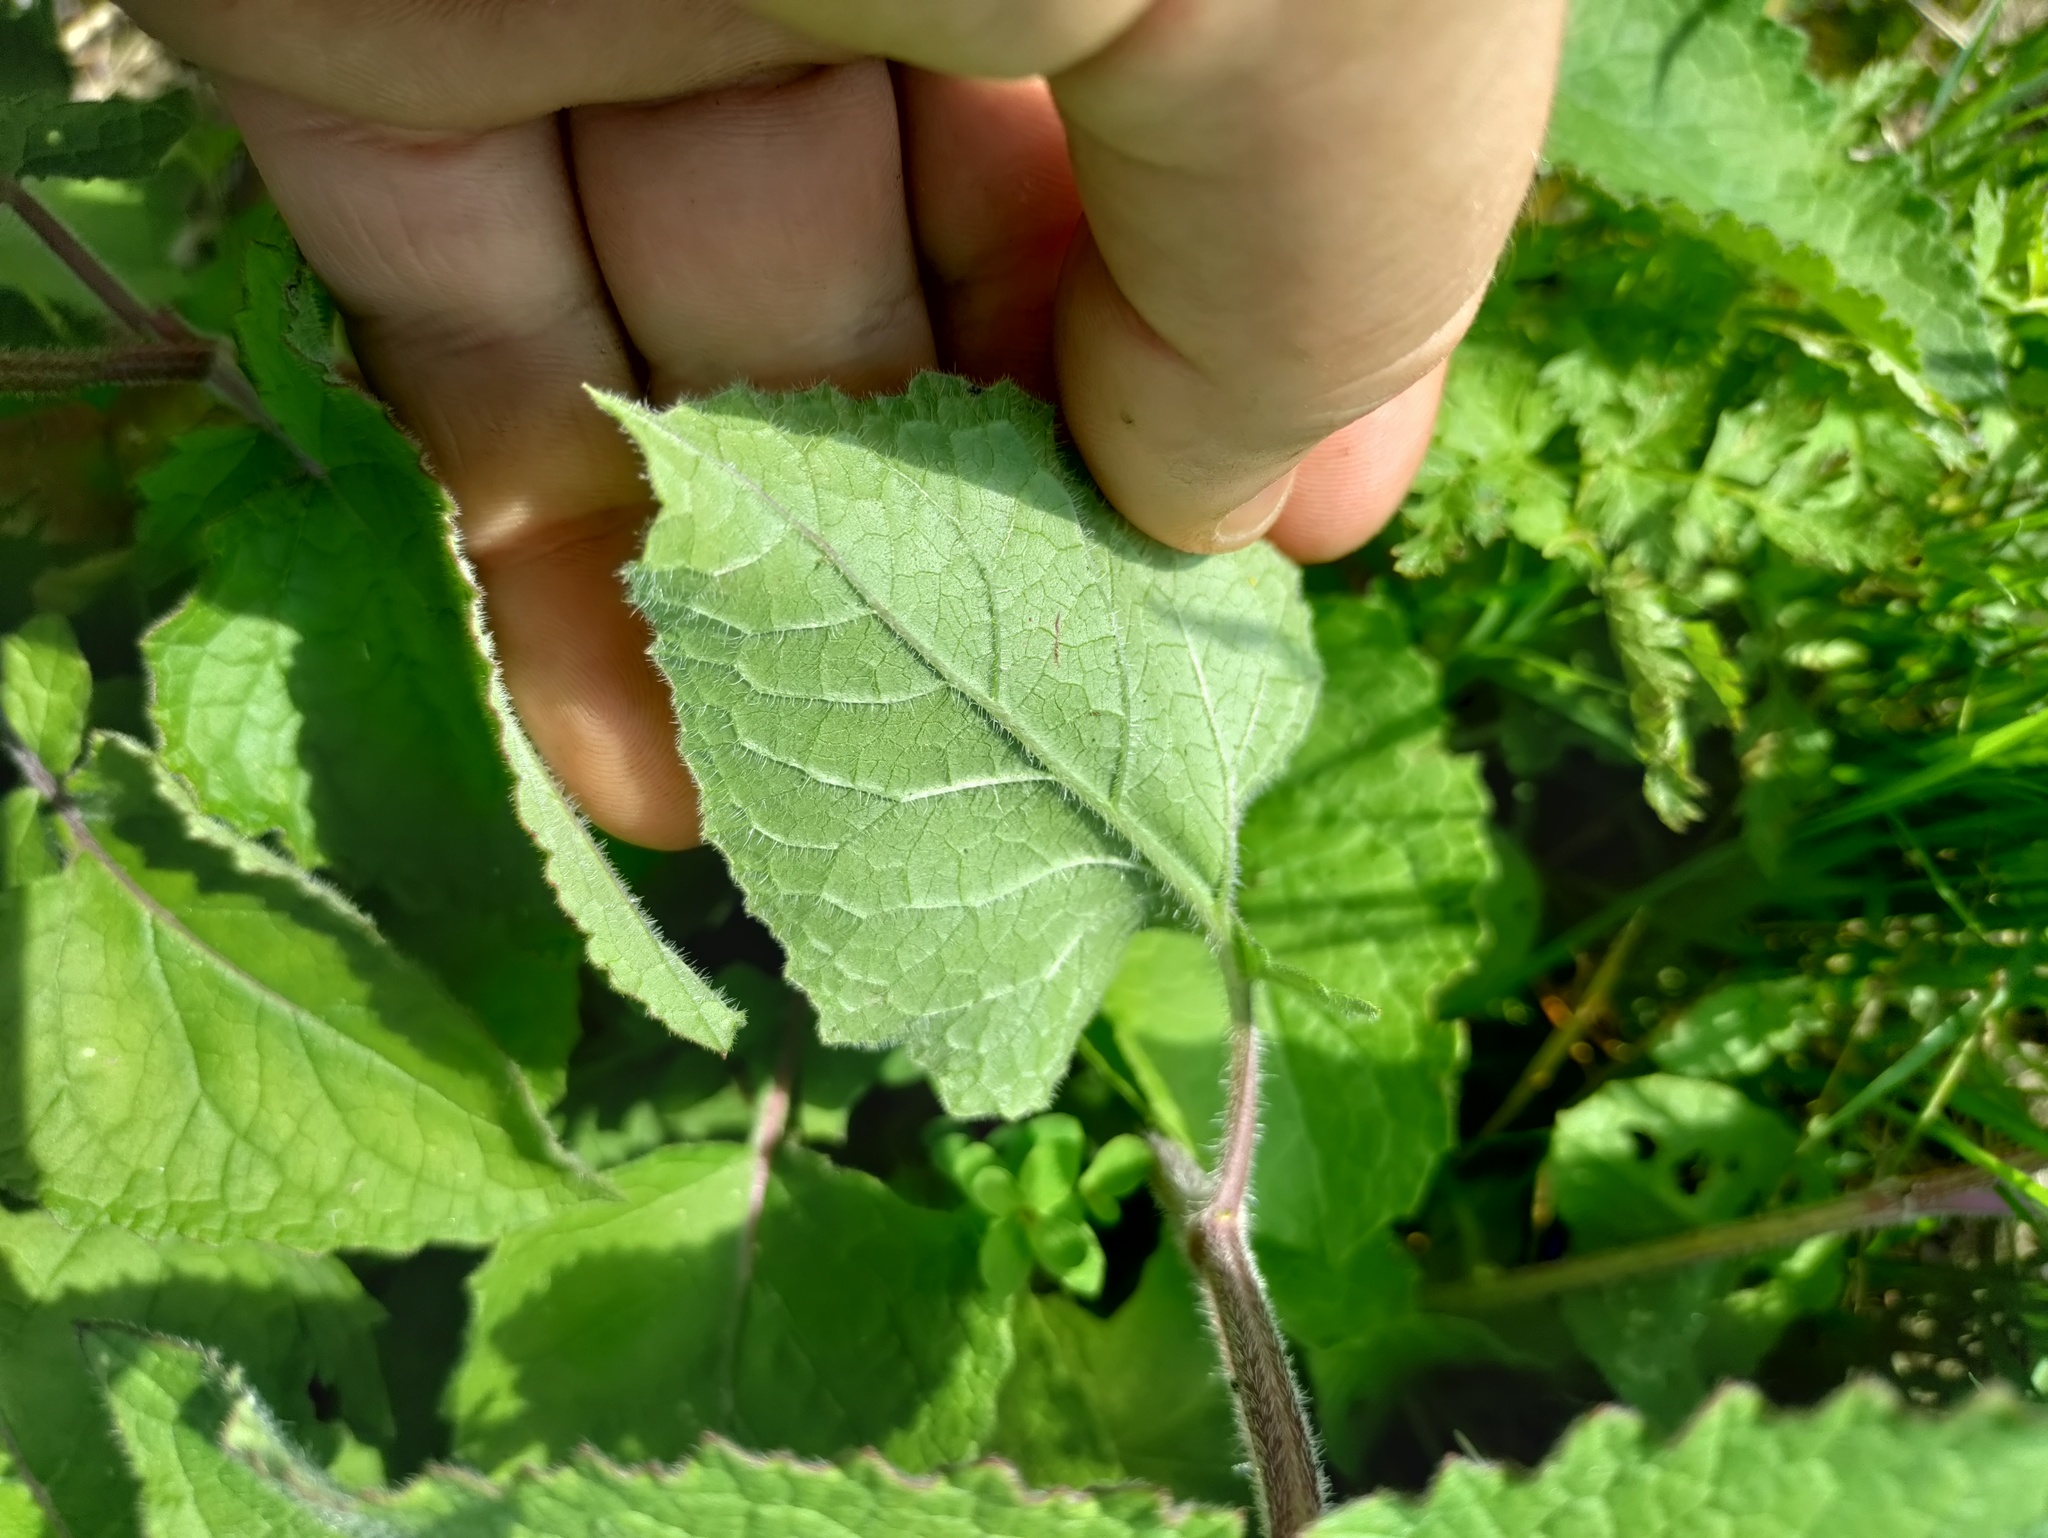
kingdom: Plantae
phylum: Tracheophyta
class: Magnoliopsida
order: Lamiales
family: Lamiaceae
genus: Salvia
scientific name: Salvia verticillata
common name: Whorled clary
